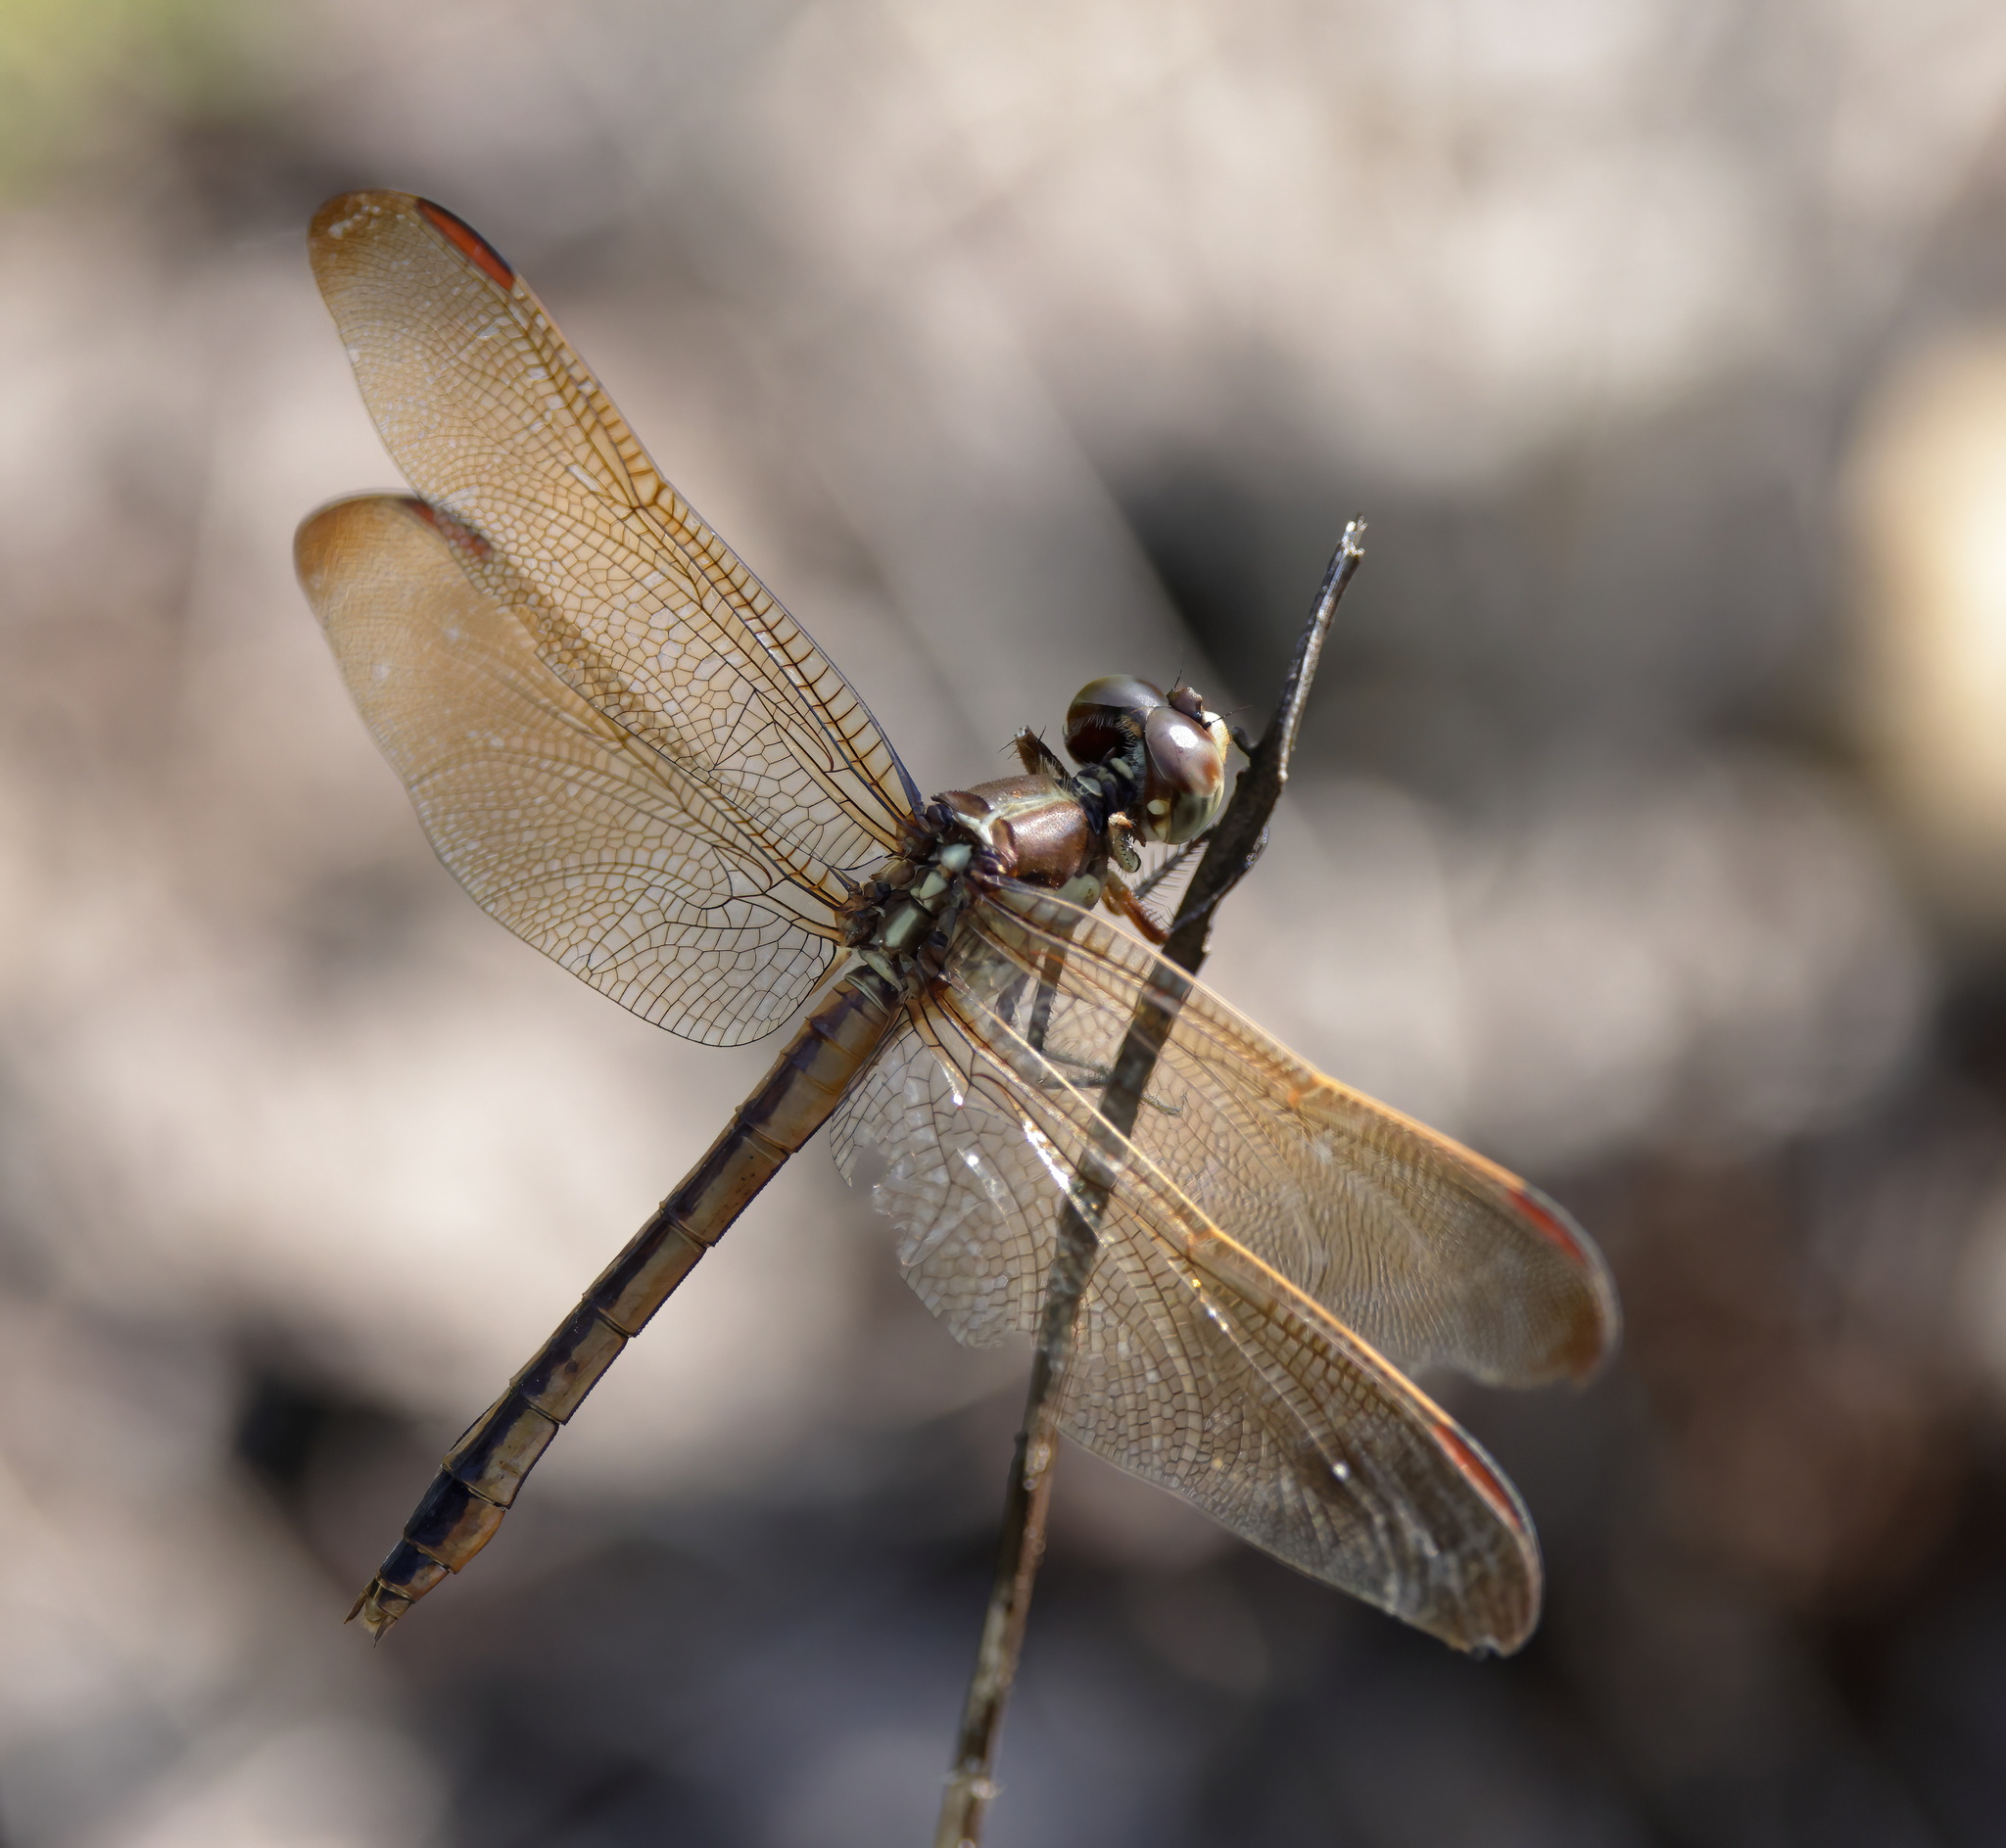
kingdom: Animalia
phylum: Arthropoda
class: Insecta
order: Odonata
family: Libellulidae
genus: Libellula
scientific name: Libellula auripennis
